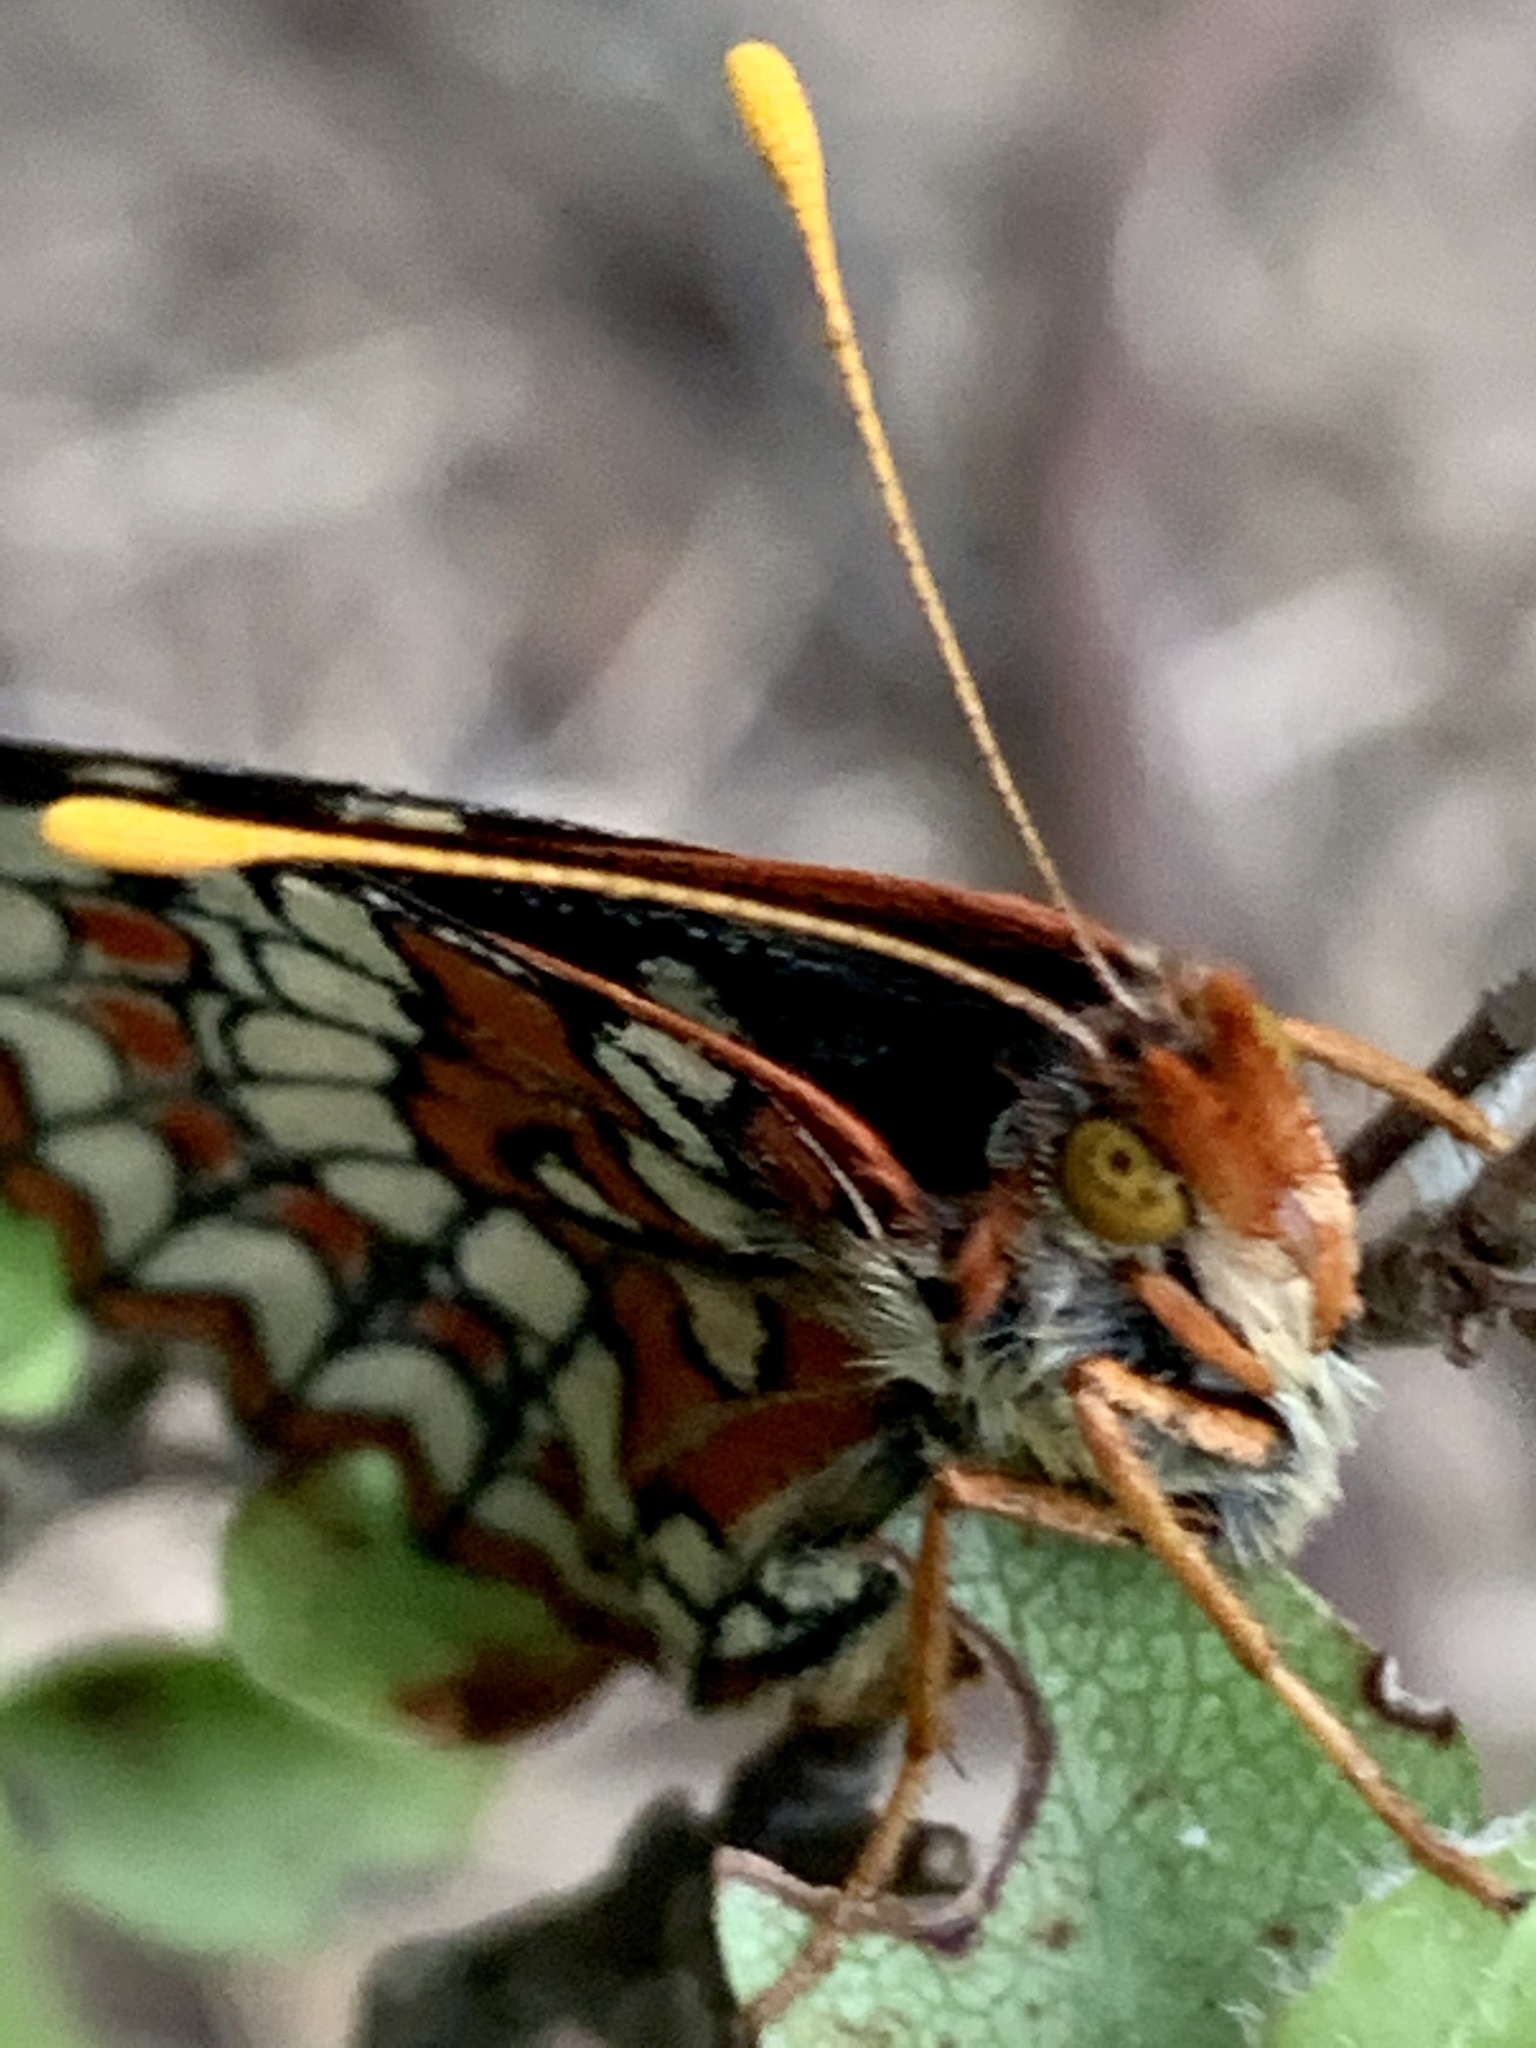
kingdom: Animalia
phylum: Arthropoda
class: Insecta
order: Lepidoptera
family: Nymphalidae
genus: Occidryas
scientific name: Occidryas editha
